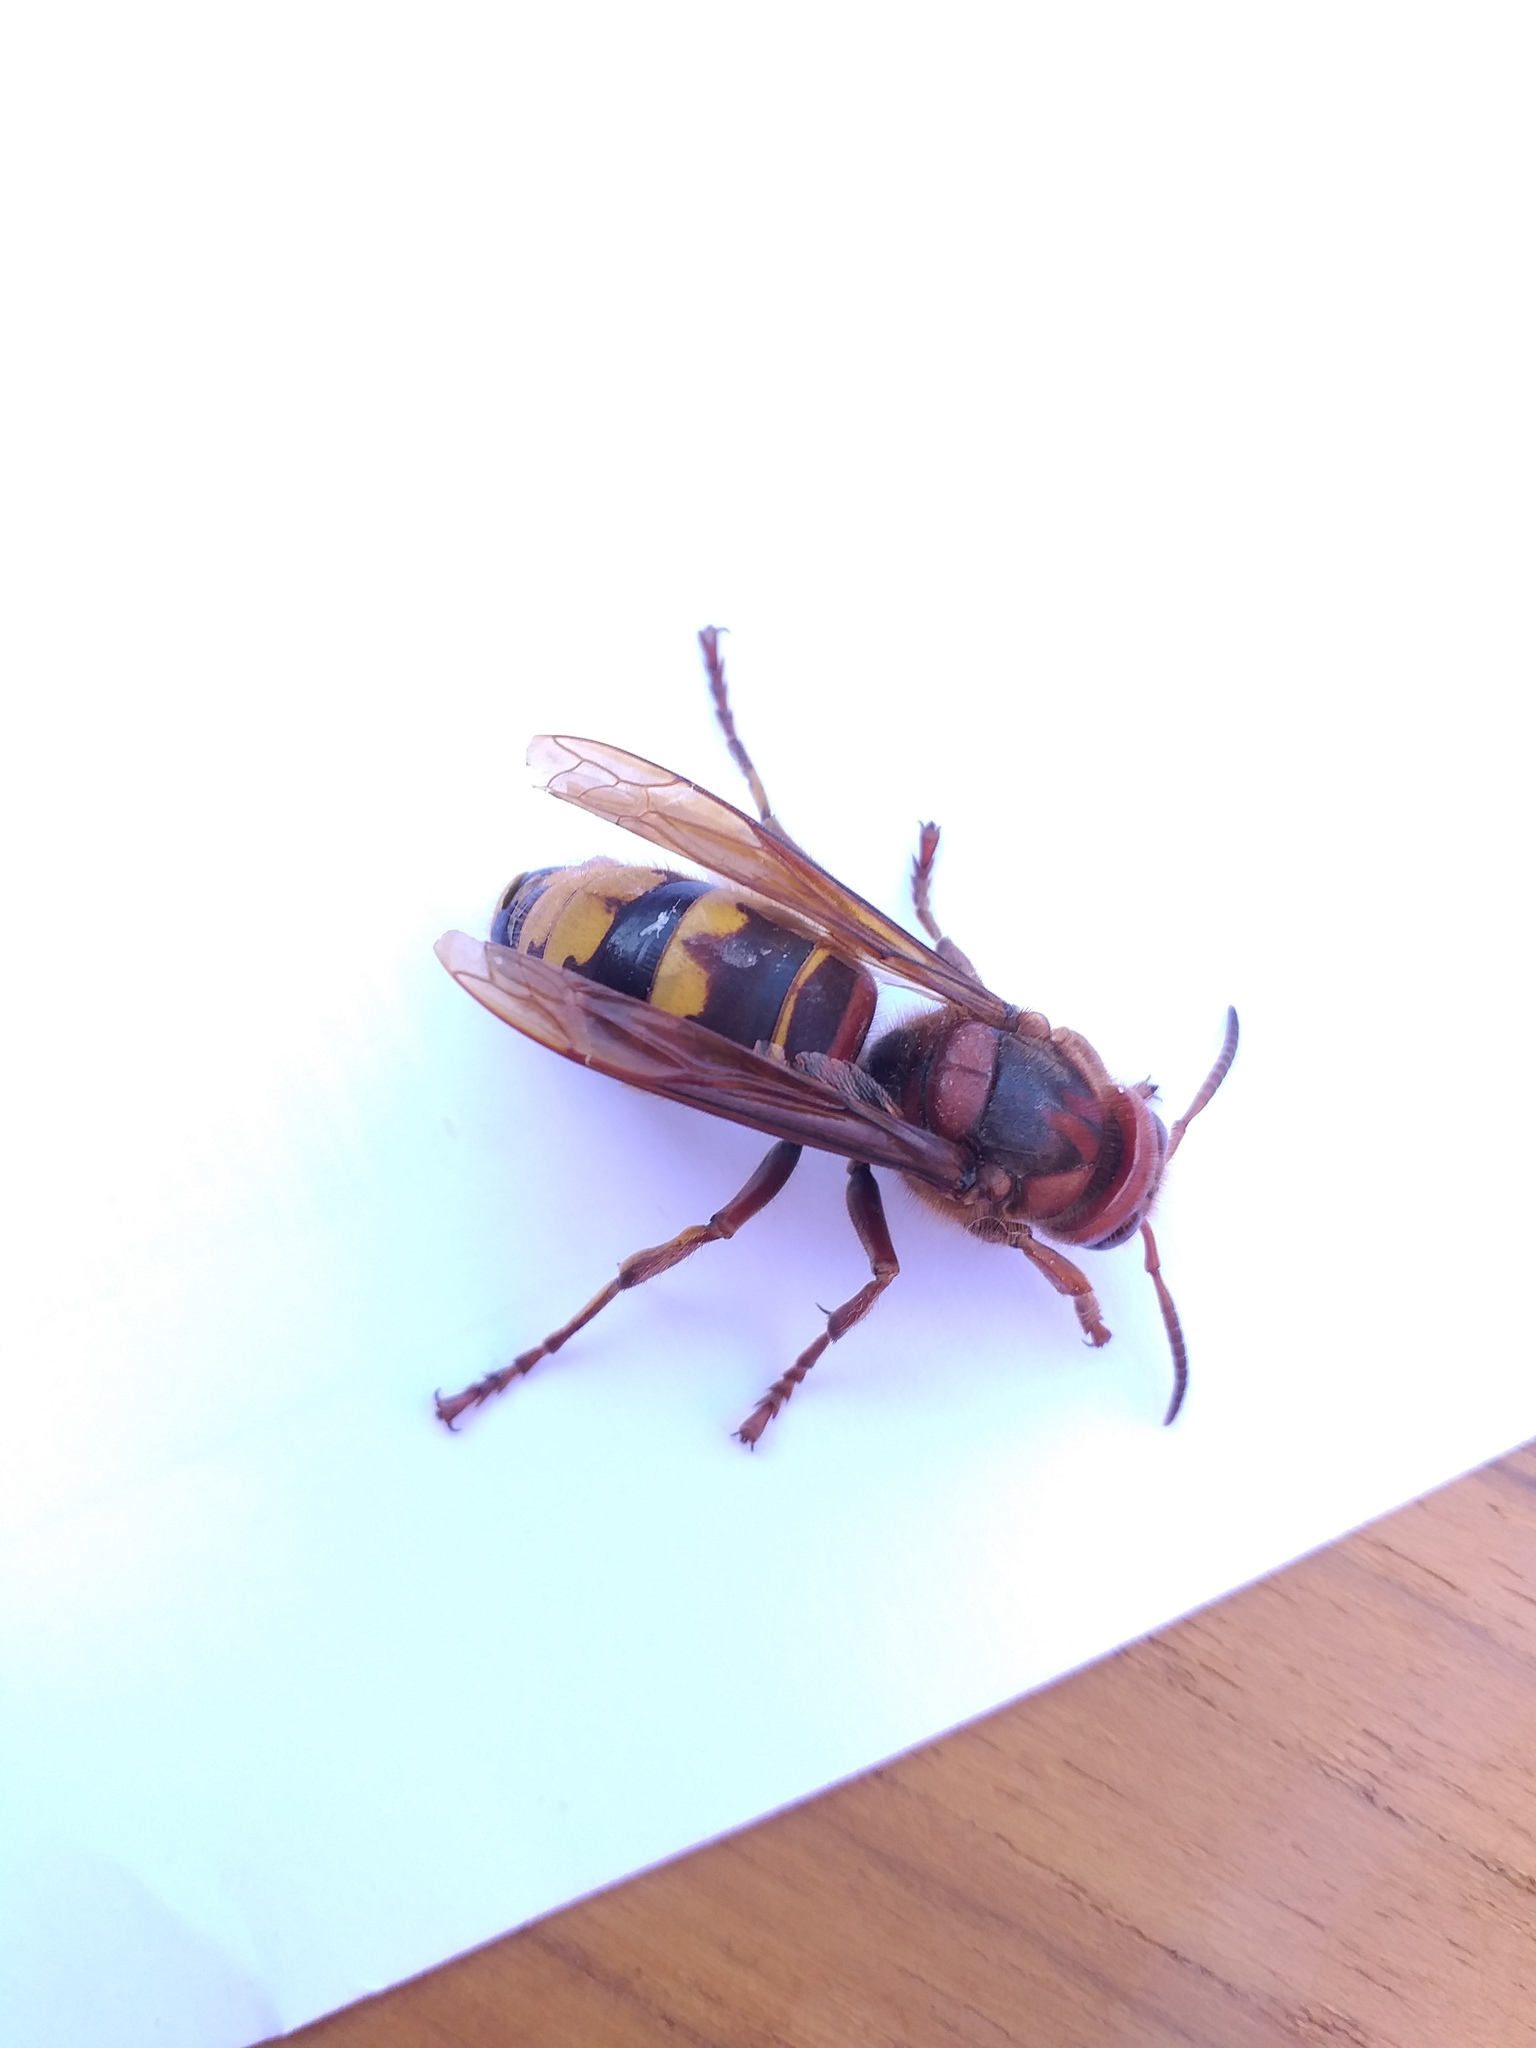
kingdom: Animalia
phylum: Arthropoda
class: Insecta
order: Hymenoptera
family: Vespidae
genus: Vespa
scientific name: Vespa crabro
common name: Hornet
